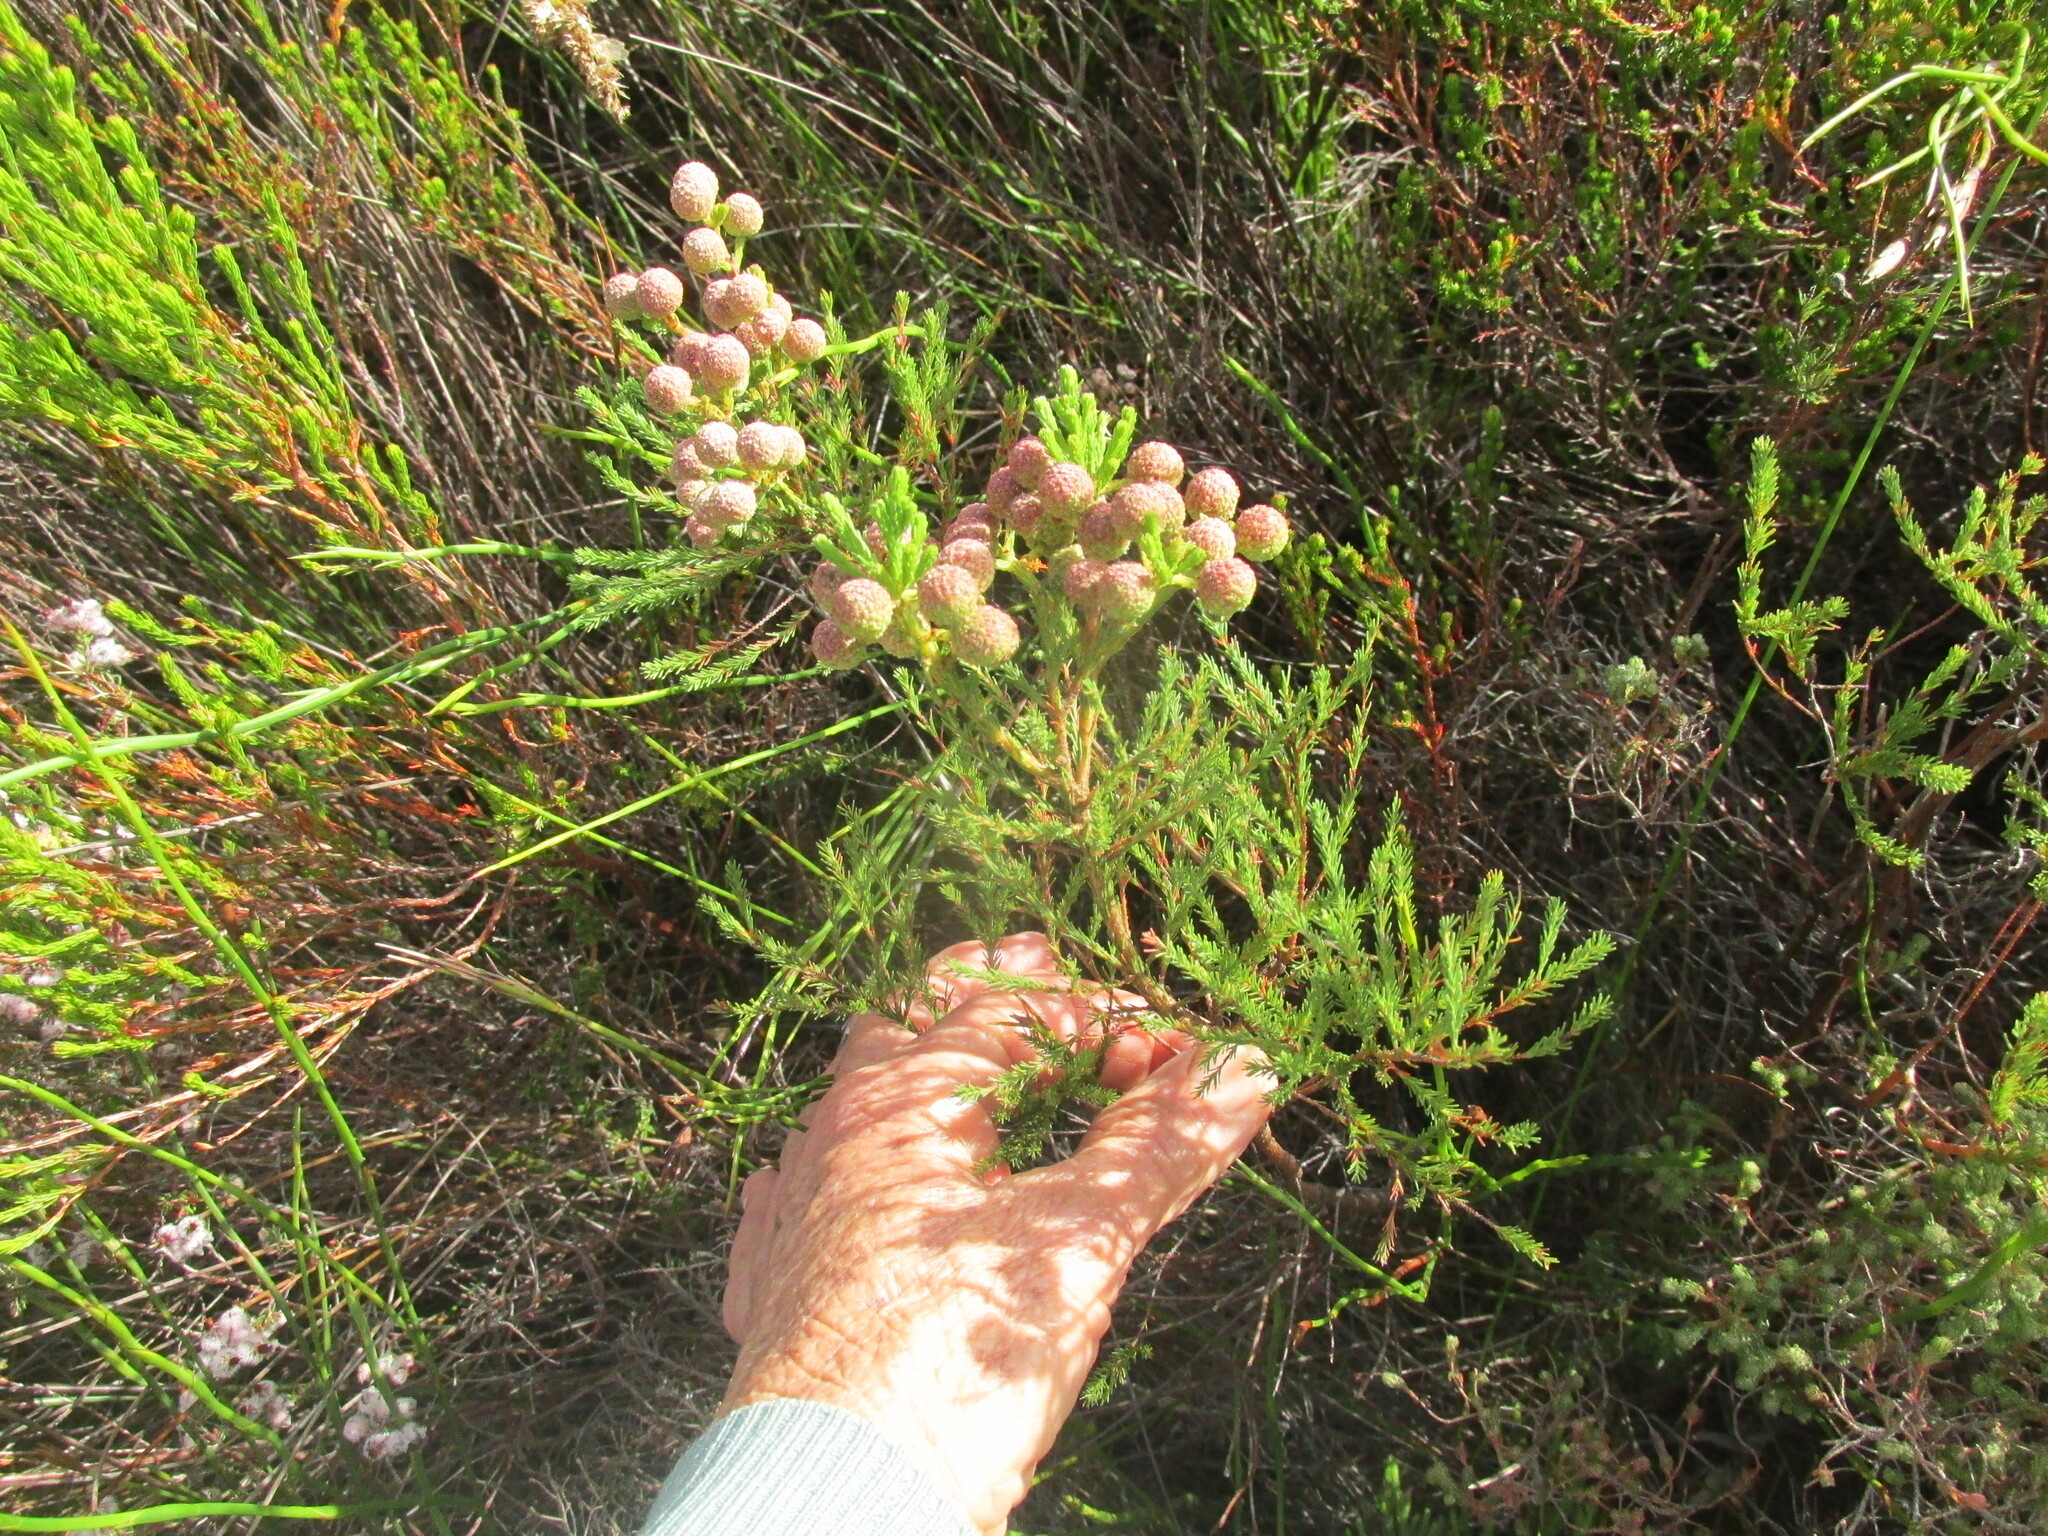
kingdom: Plantae
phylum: Tracheophyta
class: Magnoliopsida
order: Bruniales
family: Bruniaceae
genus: Berzelia
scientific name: Berzelia lanuginosa
